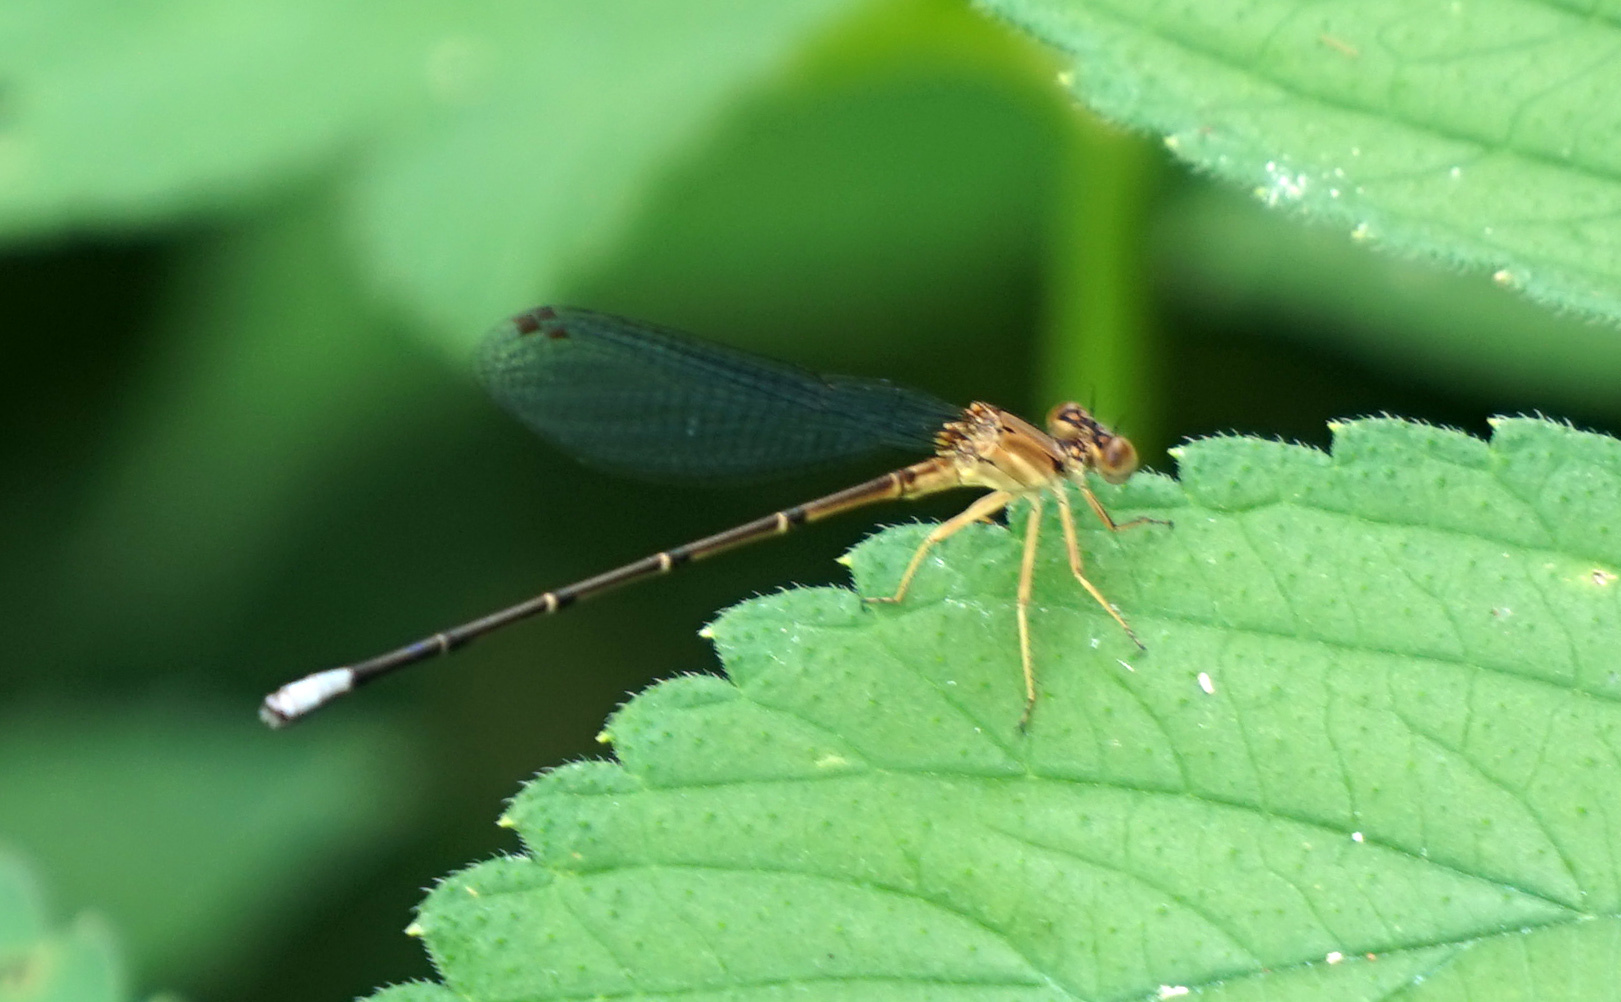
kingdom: Animalia
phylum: Arthropoda
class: Insecta
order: Odonata
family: Coenagrionidae
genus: Argia
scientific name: Argia apicalis
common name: Blue-fronted dancer
